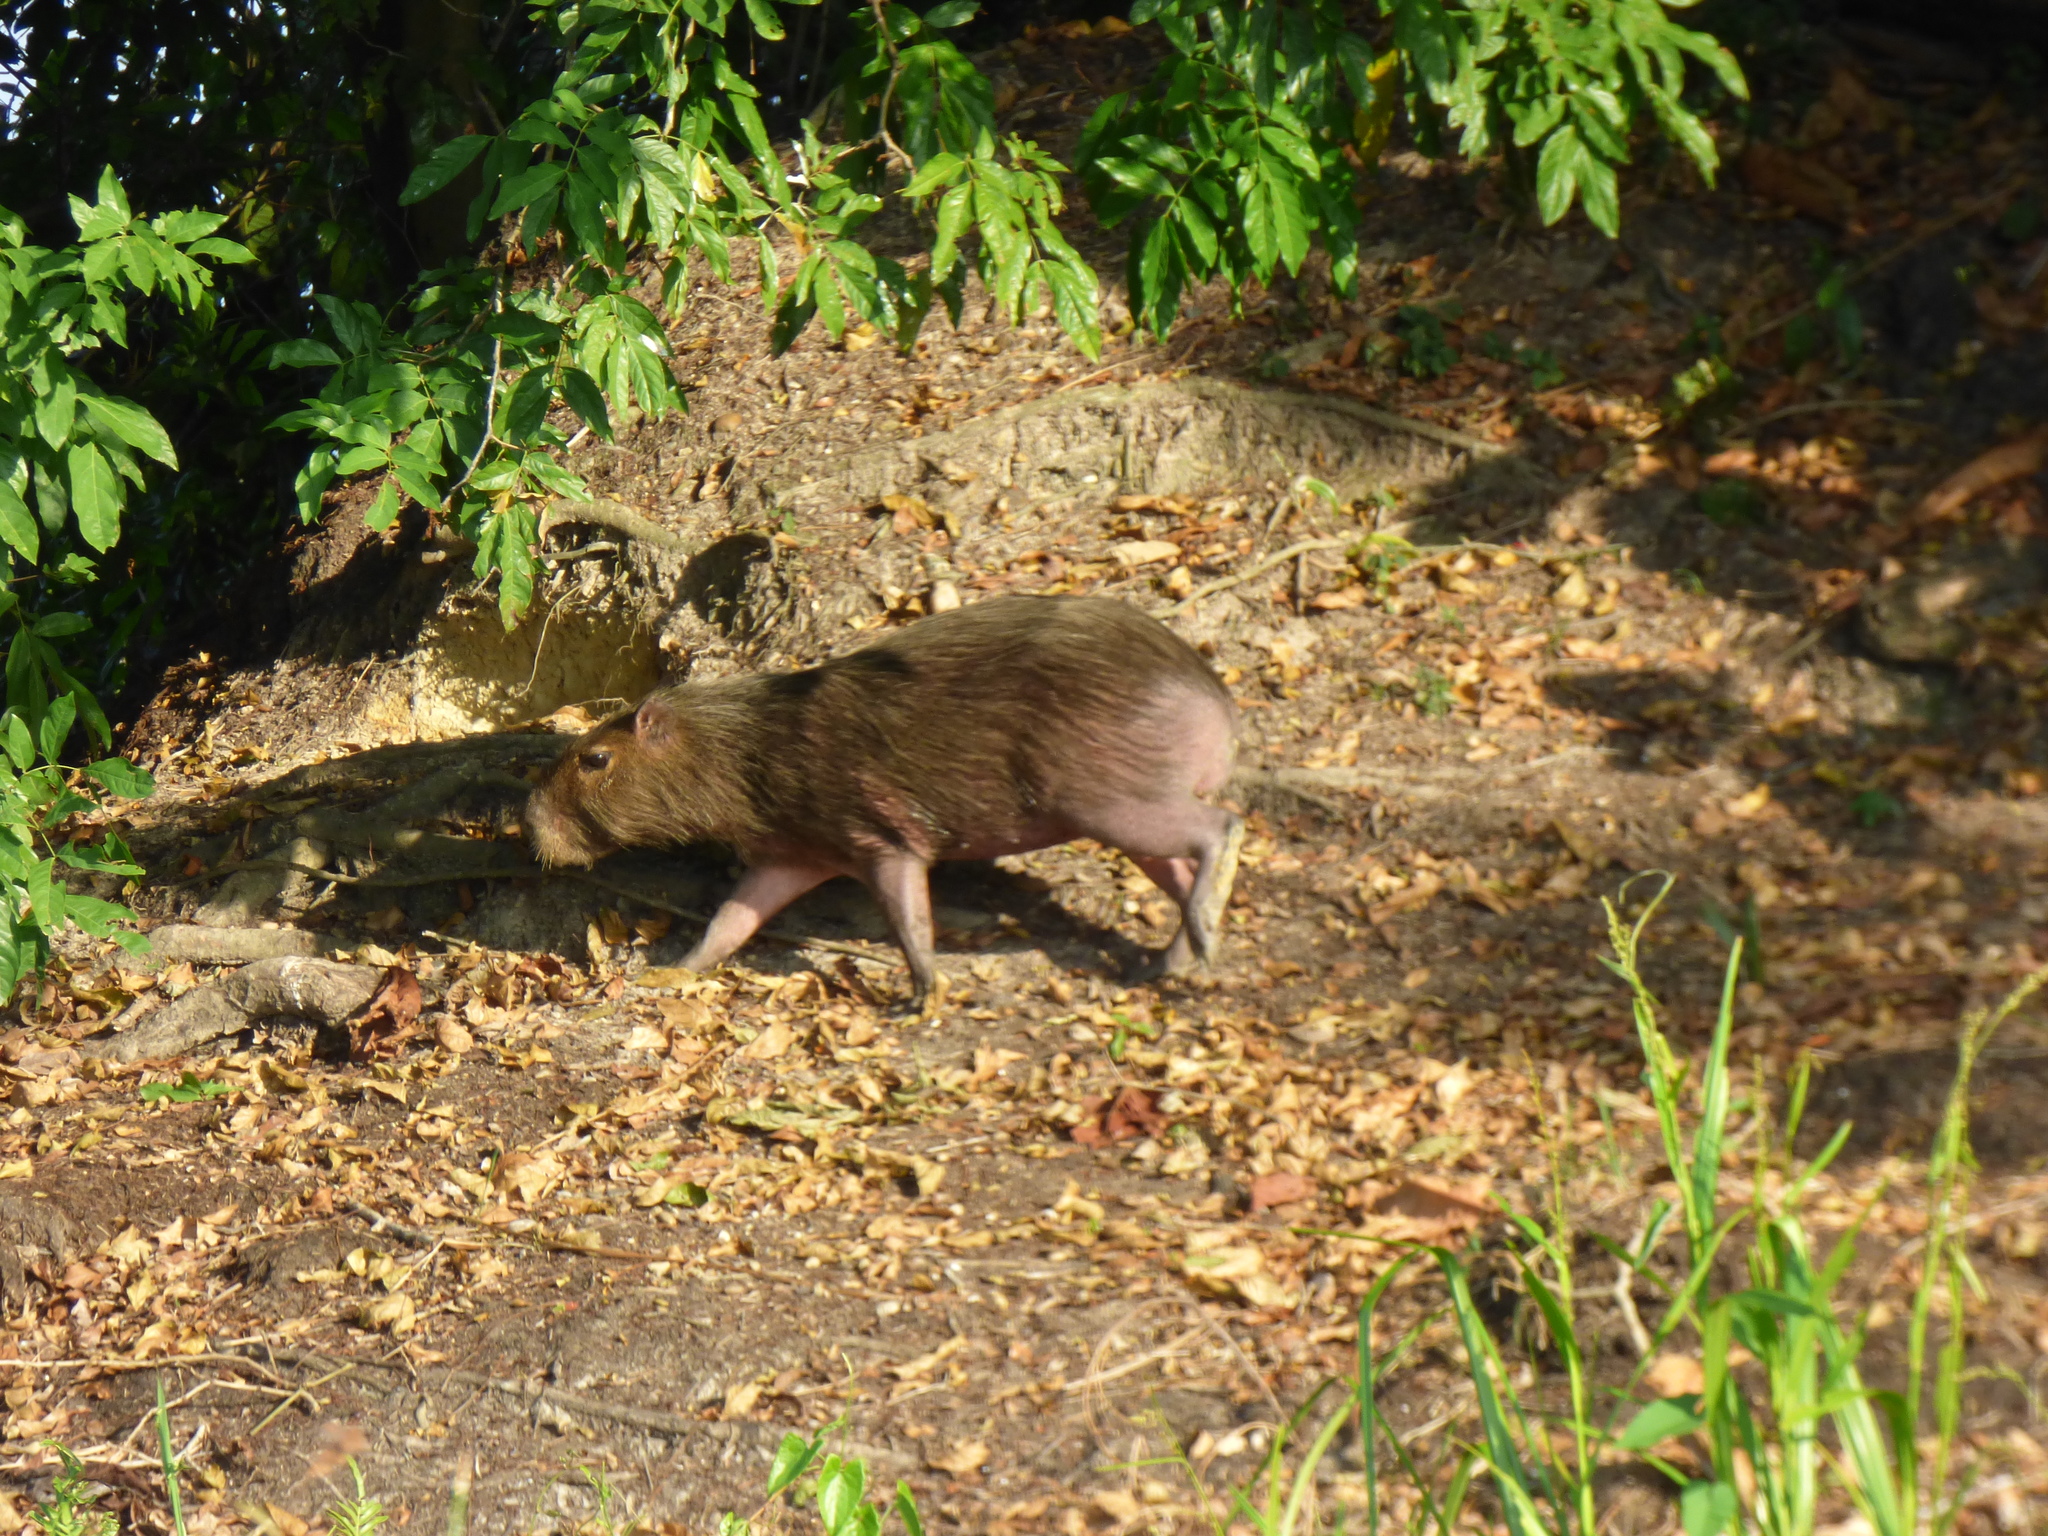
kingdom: Animalia
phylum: Chordata
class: Mammalia
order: Rodentia
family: Caviidae
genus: Hydrochoerus
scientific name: Hydrochoerus isthmius
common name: Lesser capybara
